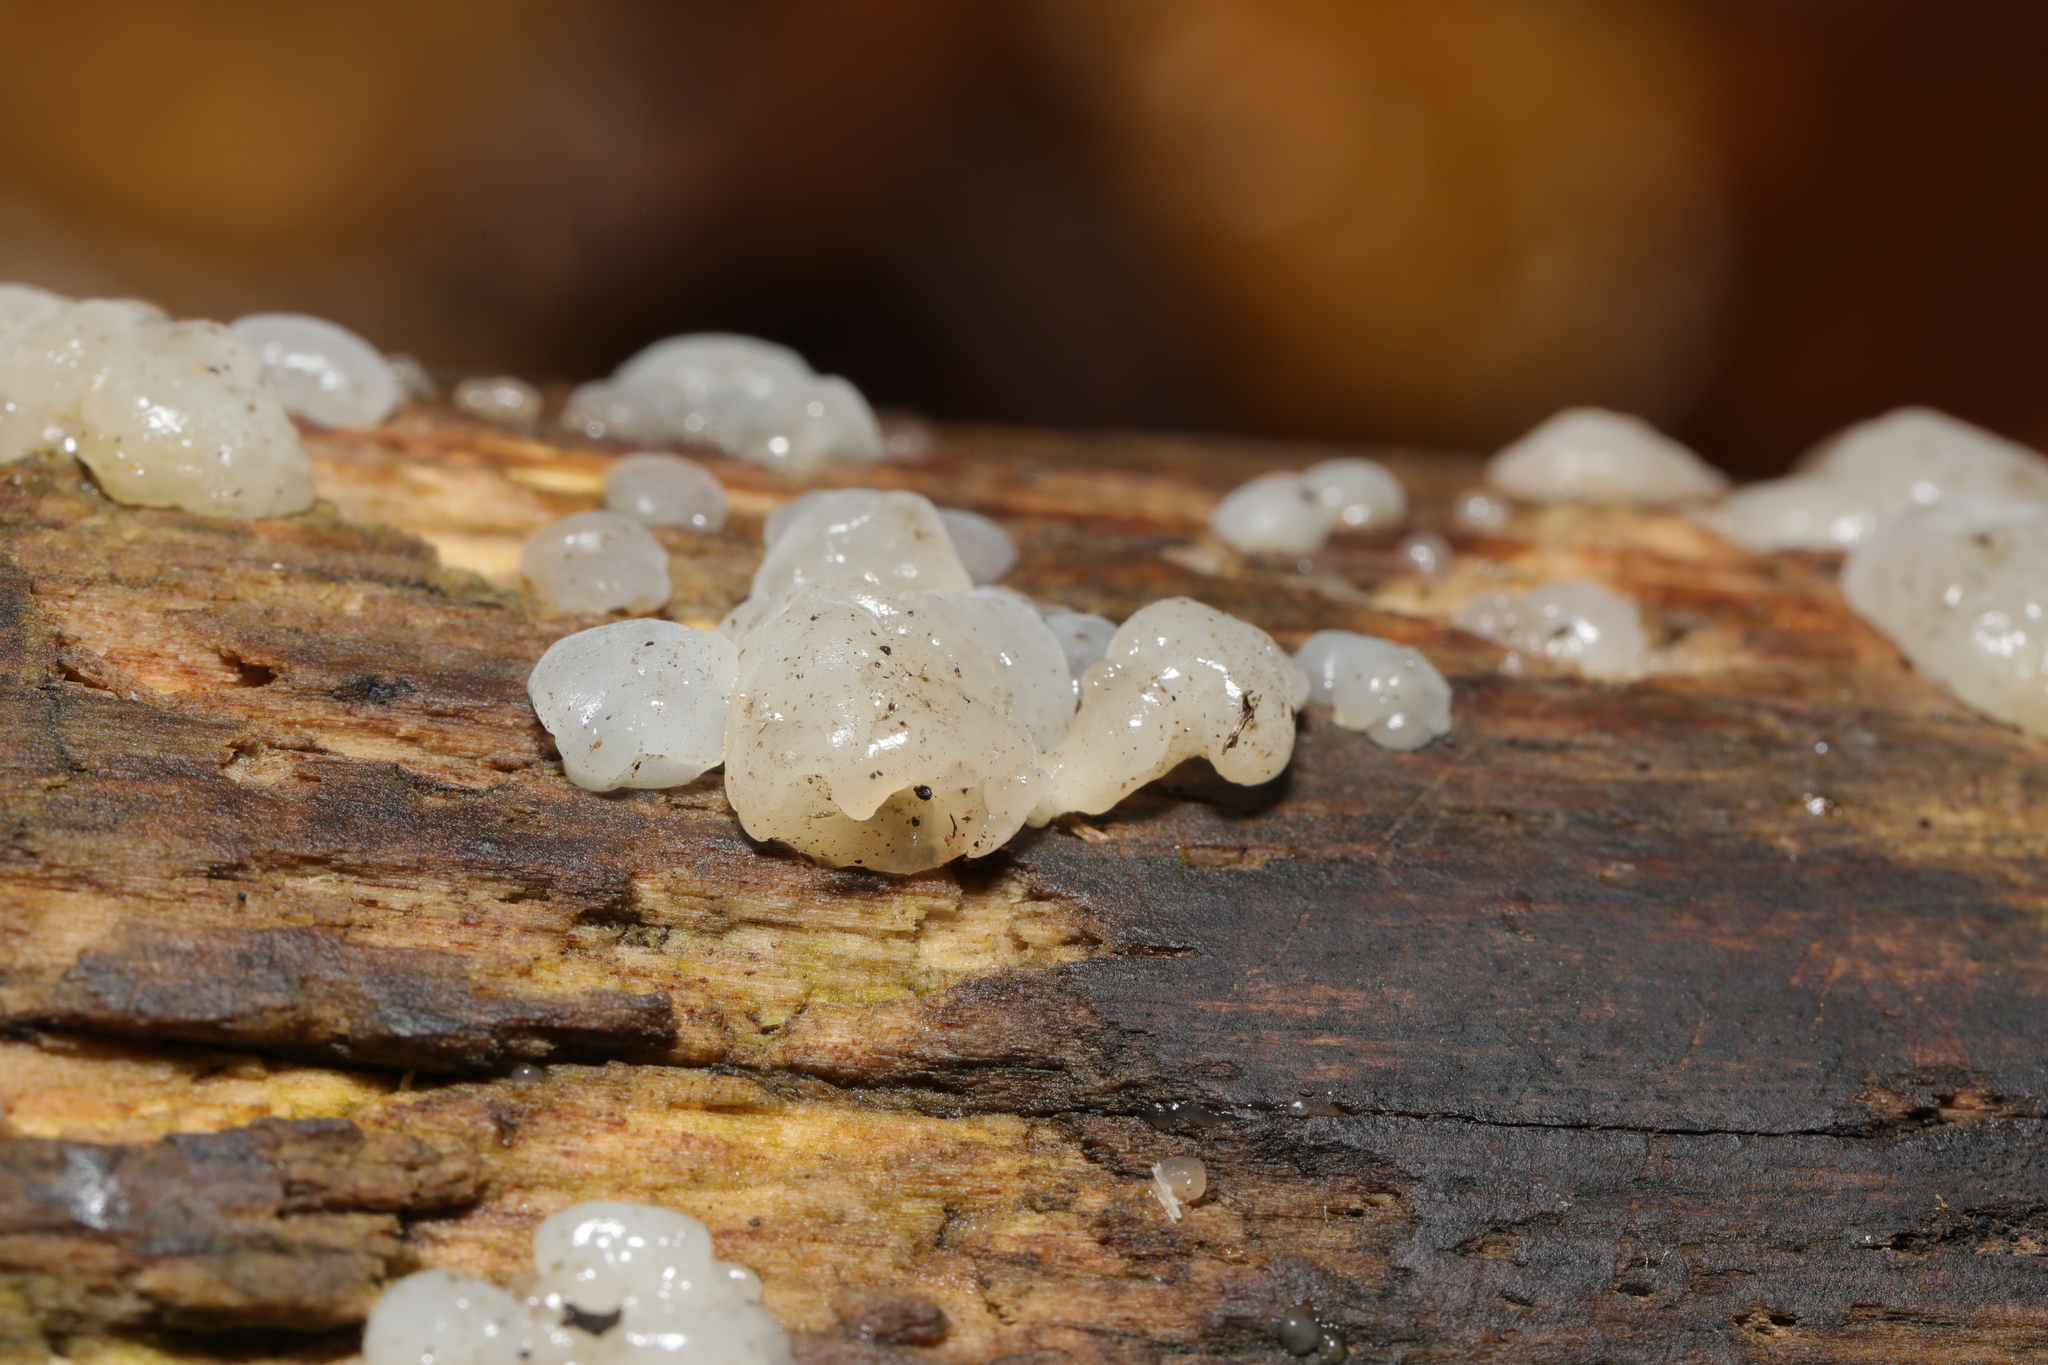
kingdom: Fungi
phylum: Basidiomycota
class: Agaricomycetes
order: Auriculariales
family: Auriculariaceae
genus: Exidia
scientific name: Exidia thuretiana
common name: White brain
